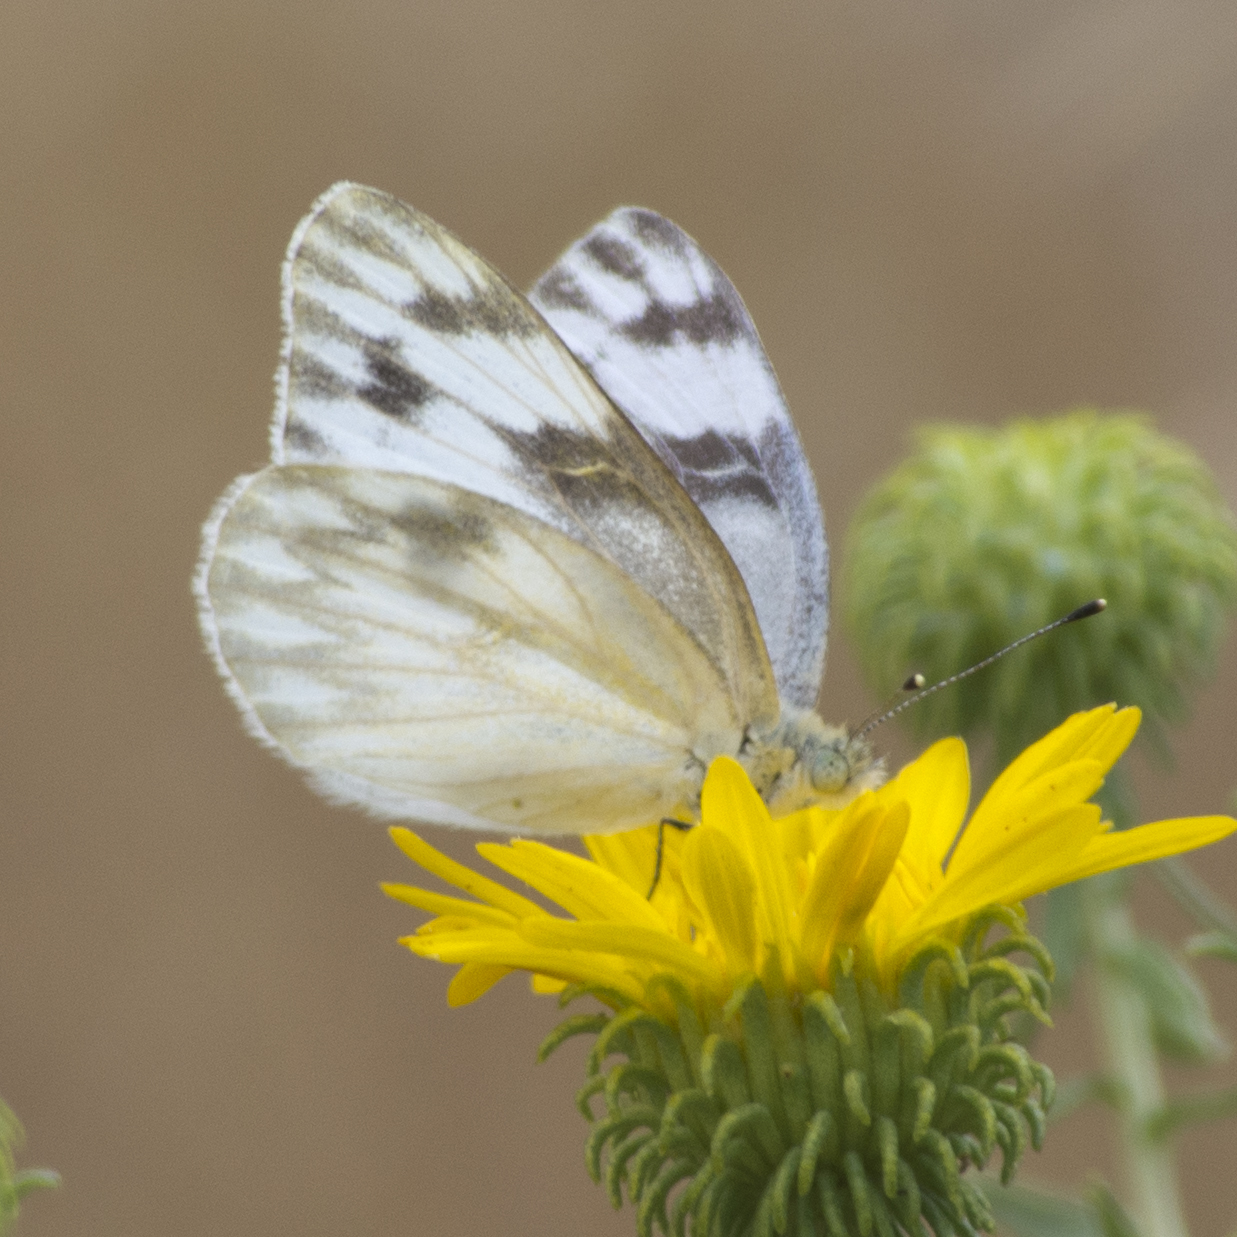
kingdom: Animalia
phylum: Arthropoda
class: Insecta
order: Lepidoptera
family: Pieridae
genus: Pontia
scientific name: Pontia protodice
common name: Checkered white
